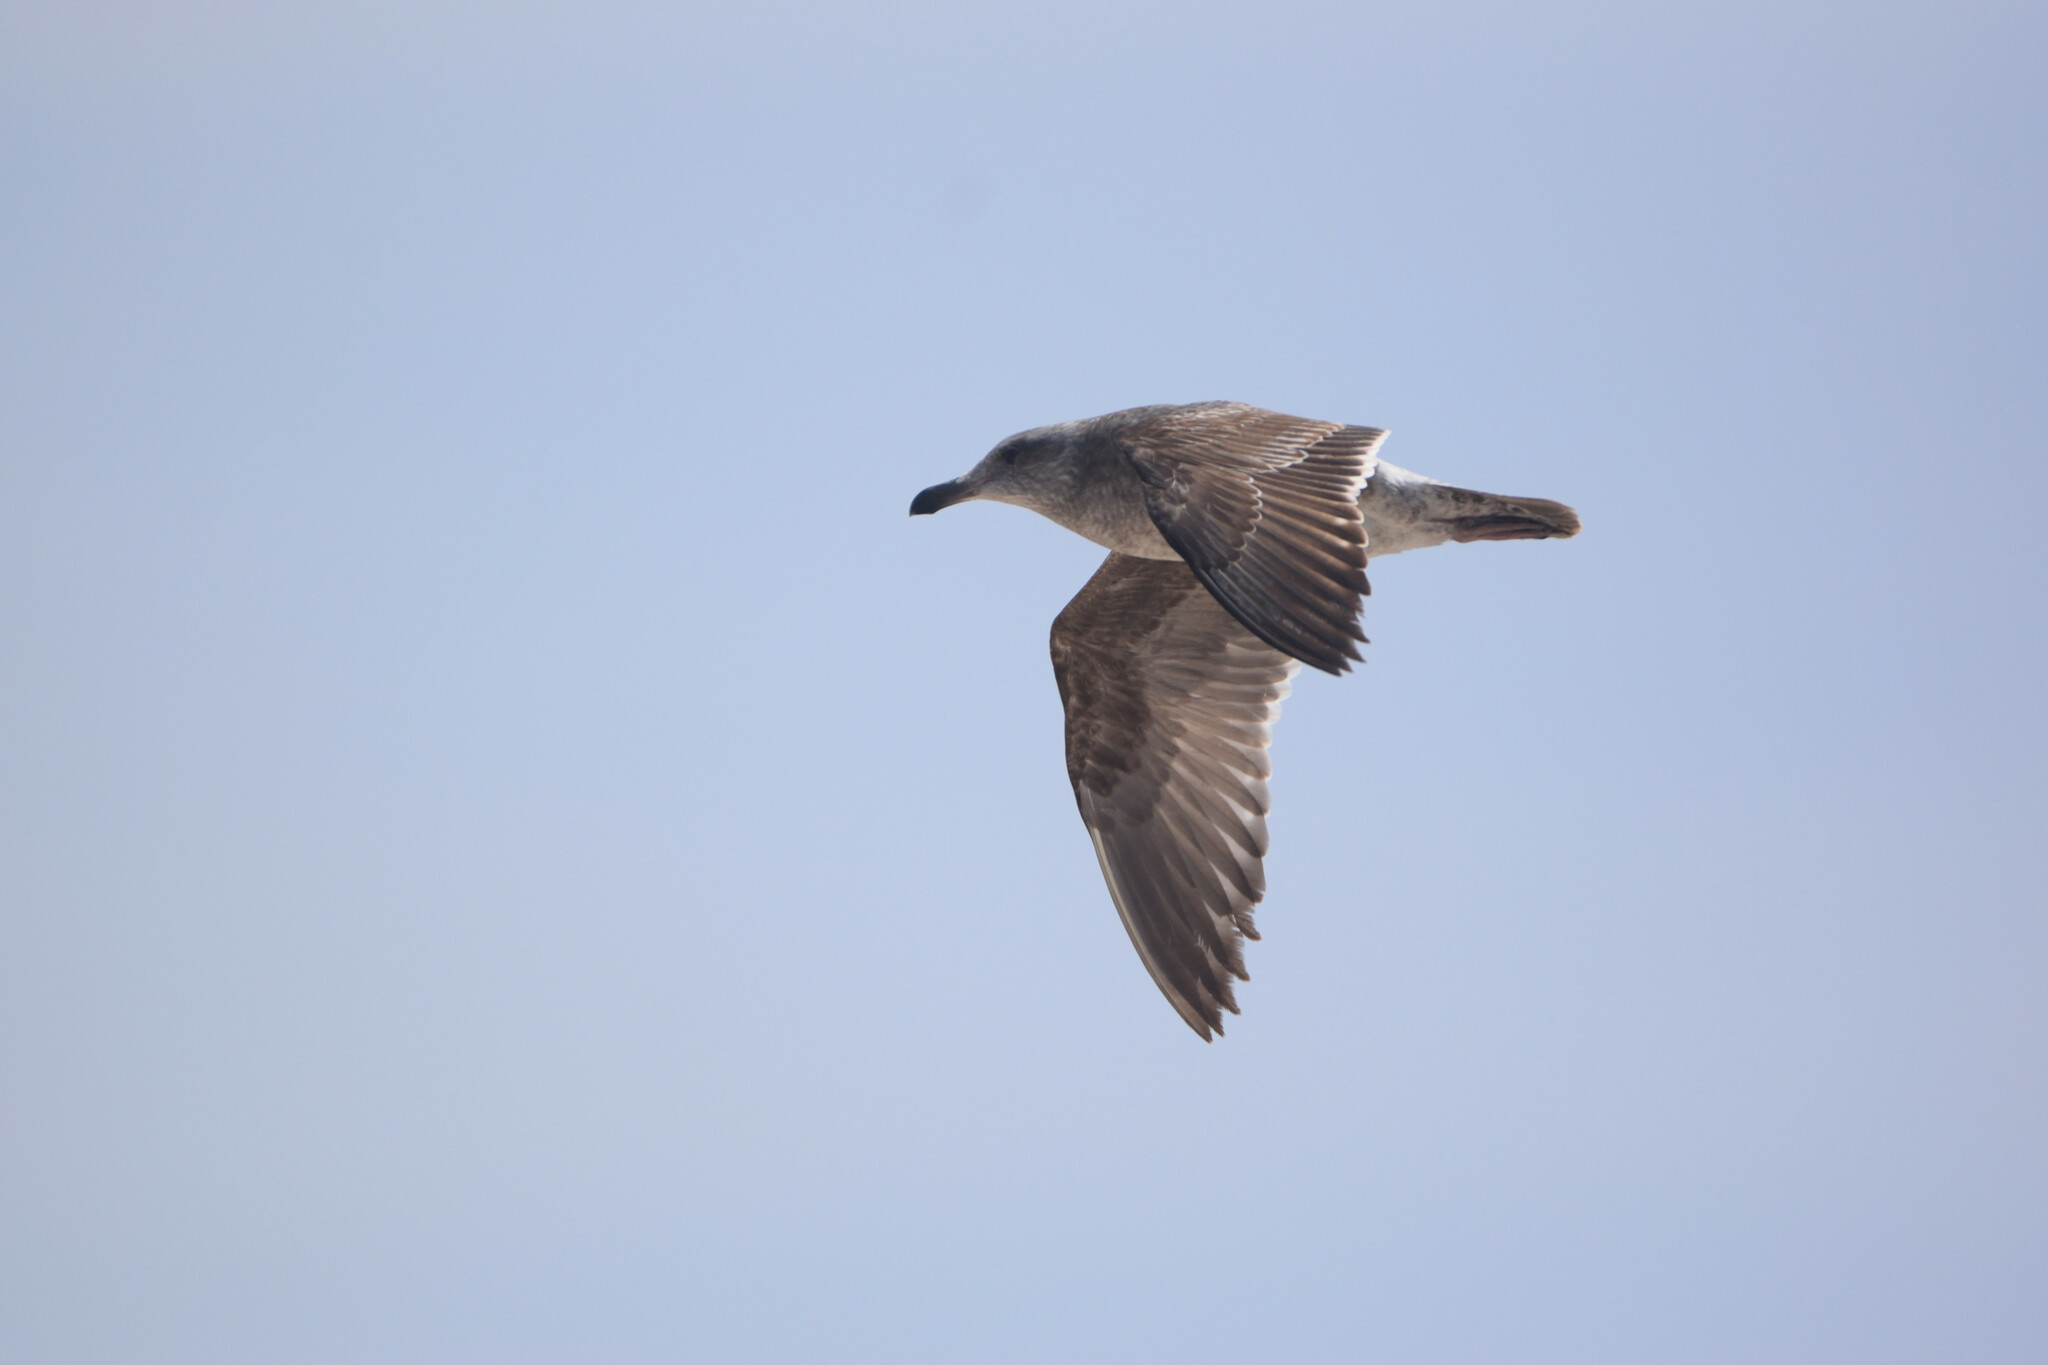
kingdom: Animalia
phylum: Chordata
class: Aves
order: Charadriiformes
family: Laridae
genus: Larus
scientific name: Larus occidentalis
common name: Western gull
